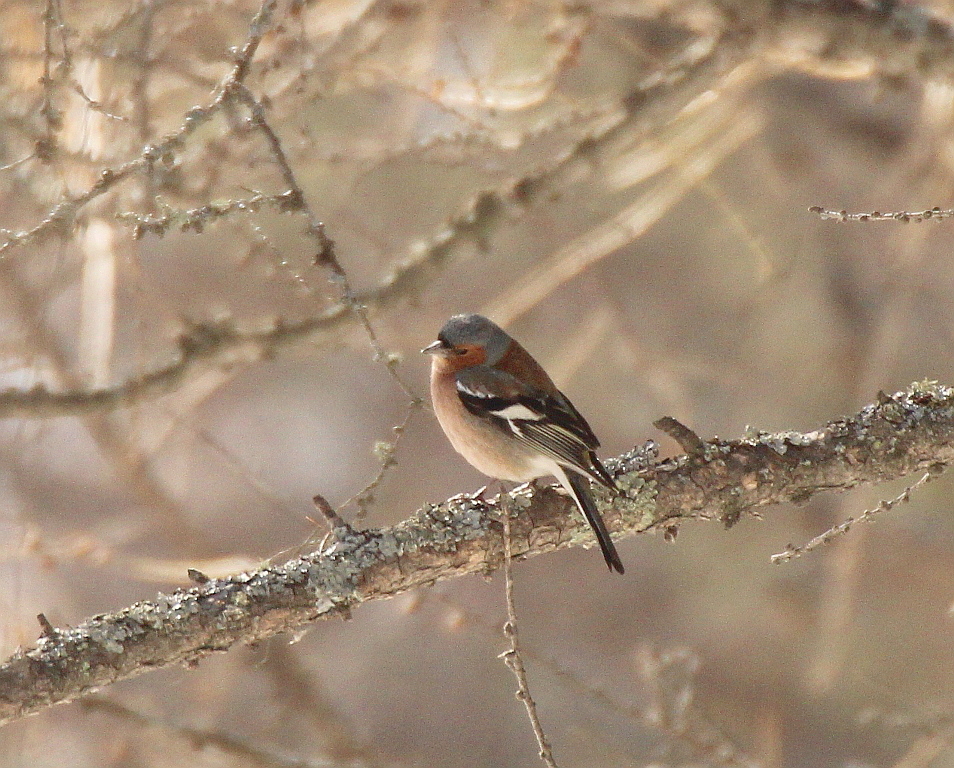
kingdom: Animalia
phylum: Chordata
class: Aves
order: Passeriformes
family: Fringillidae
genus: Fringilla
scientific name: Fringilla coelebs
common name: Common chaffinch
